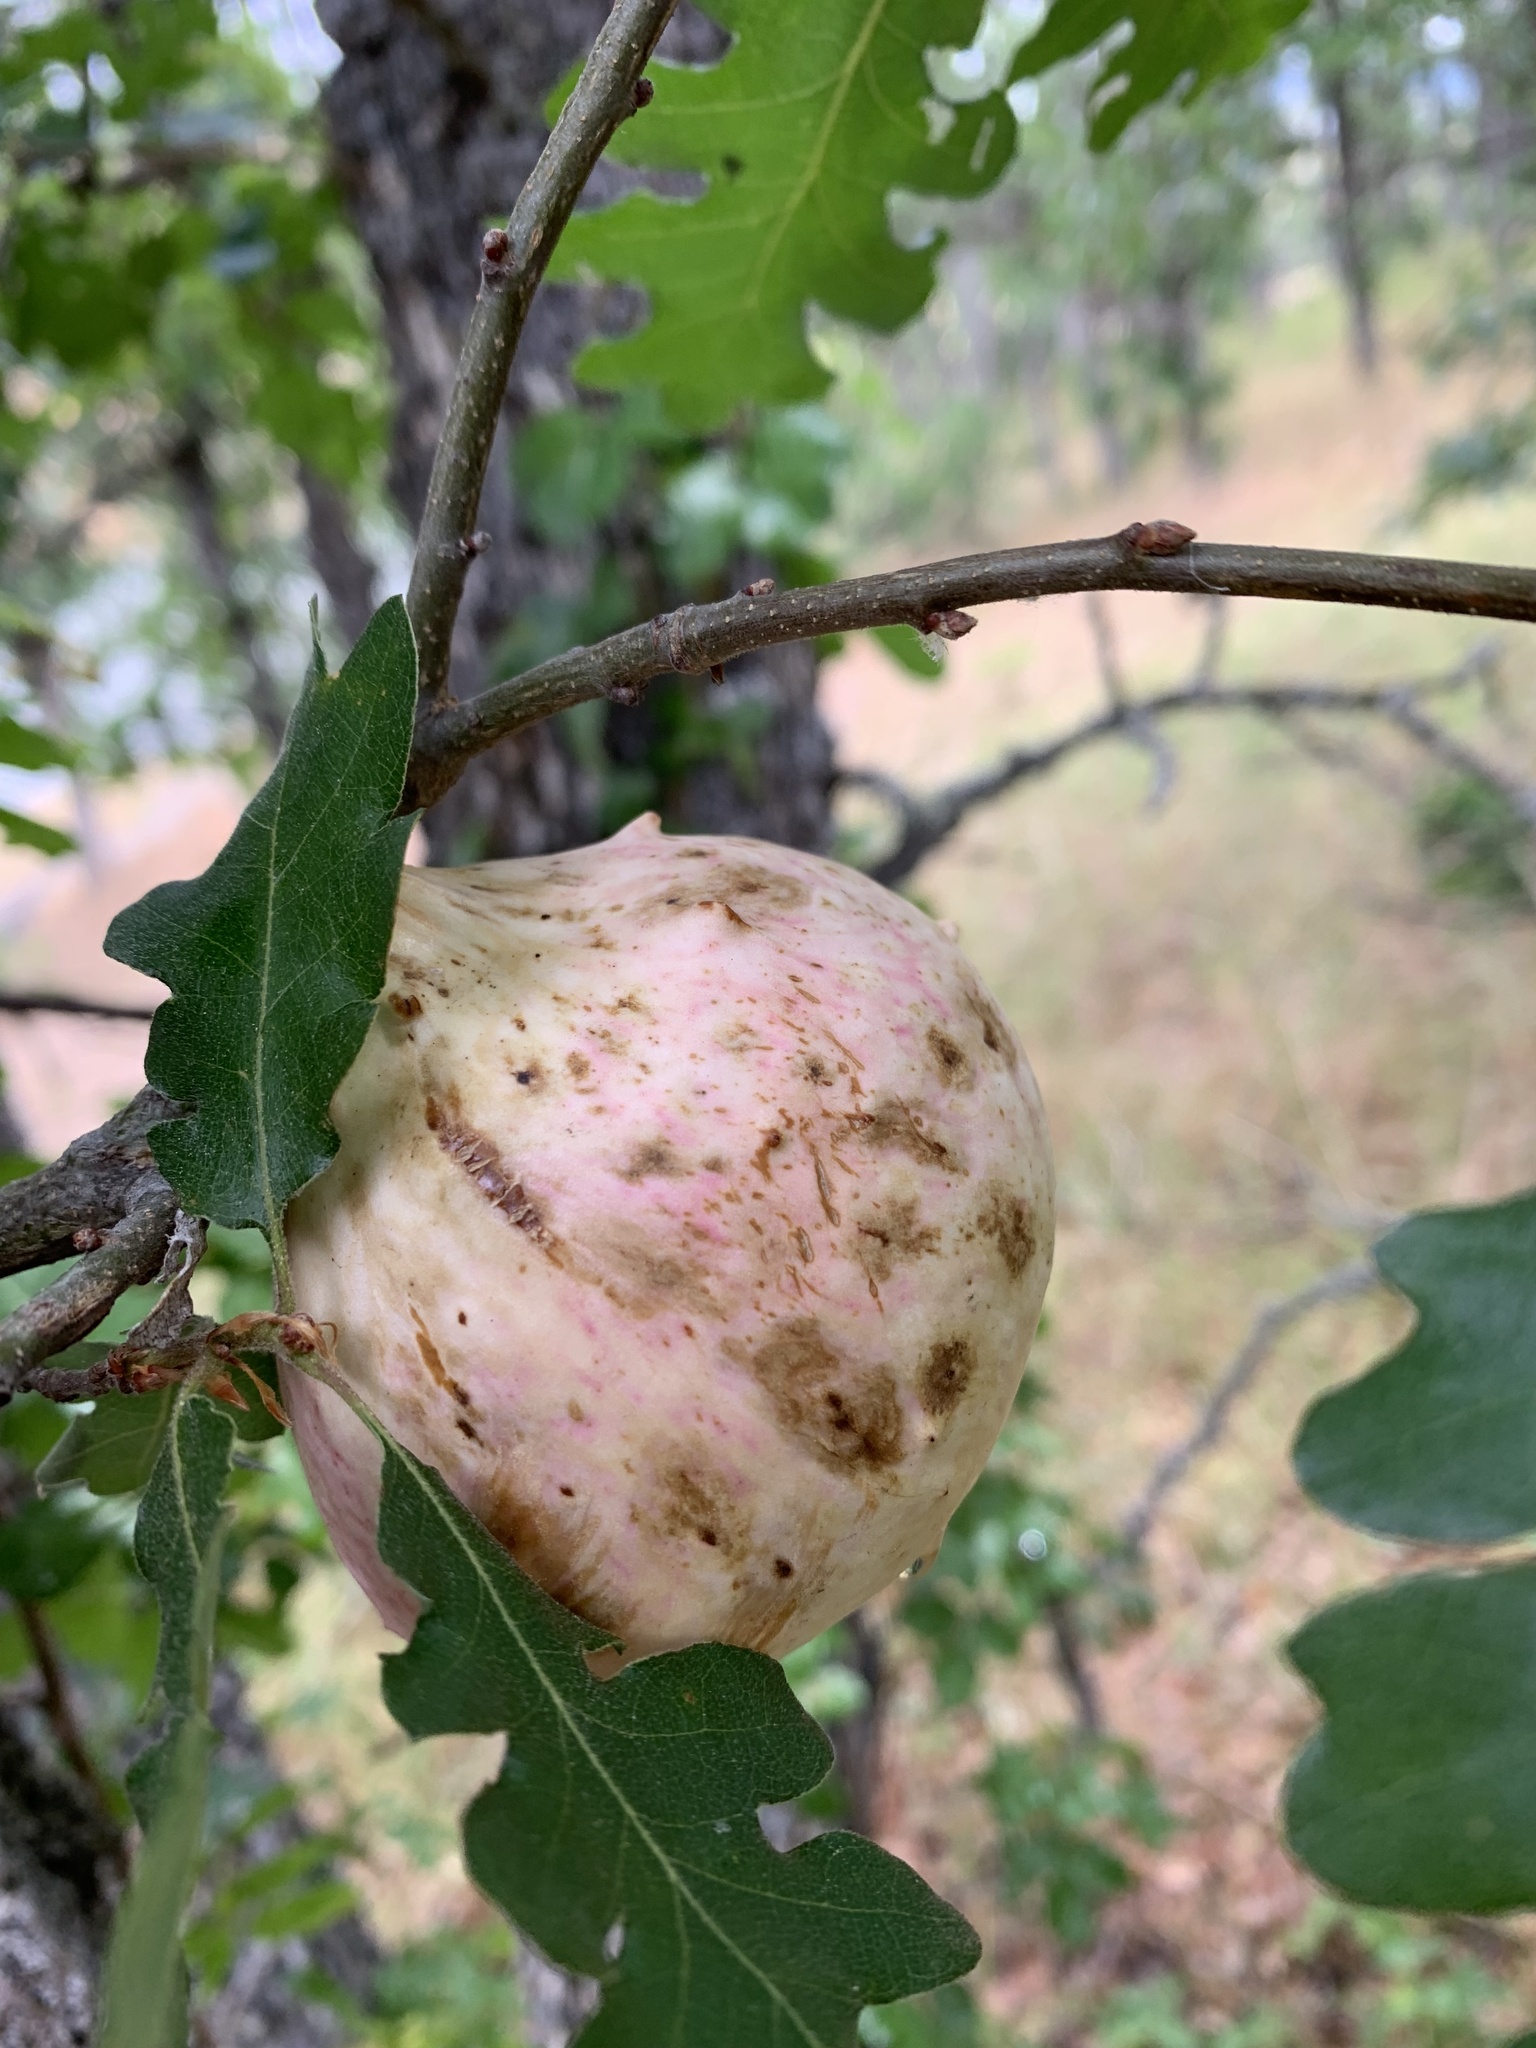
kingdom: Animalia
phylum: Arthropoda
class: Insecta
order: Hymenoptera
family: Cynipidae
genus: Andricus
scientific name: Andricus quercuscalifornicus
